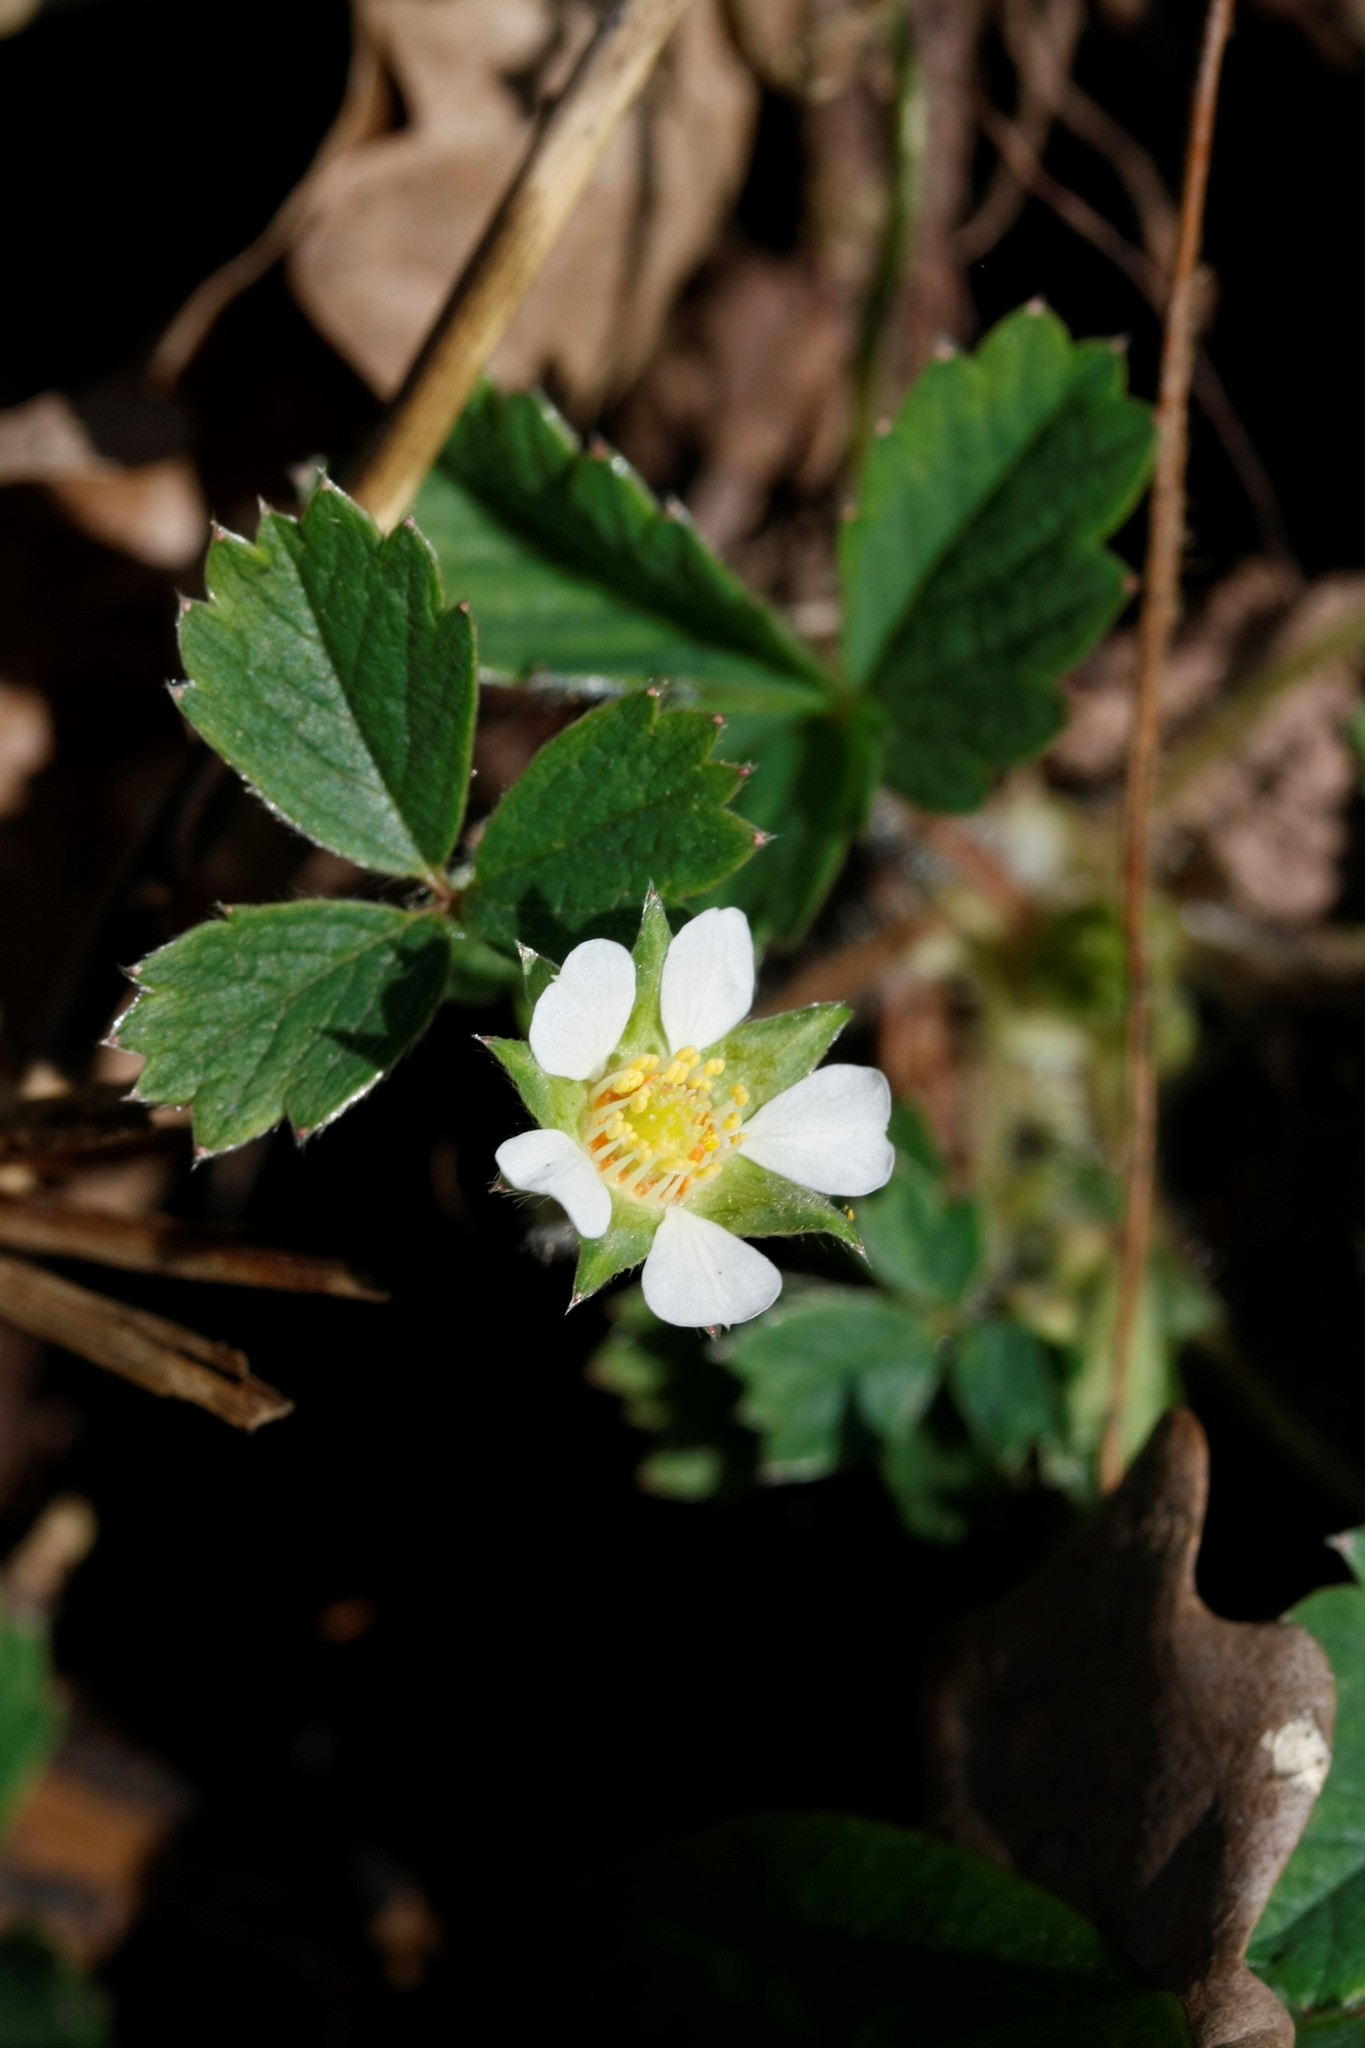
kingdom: Plantae
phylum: Tracheophyta
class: Magnoliopsida
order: Rosales
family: Rosaceae
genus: Potentilla
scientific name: Potentilla sterilis
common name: Barren strawberry
